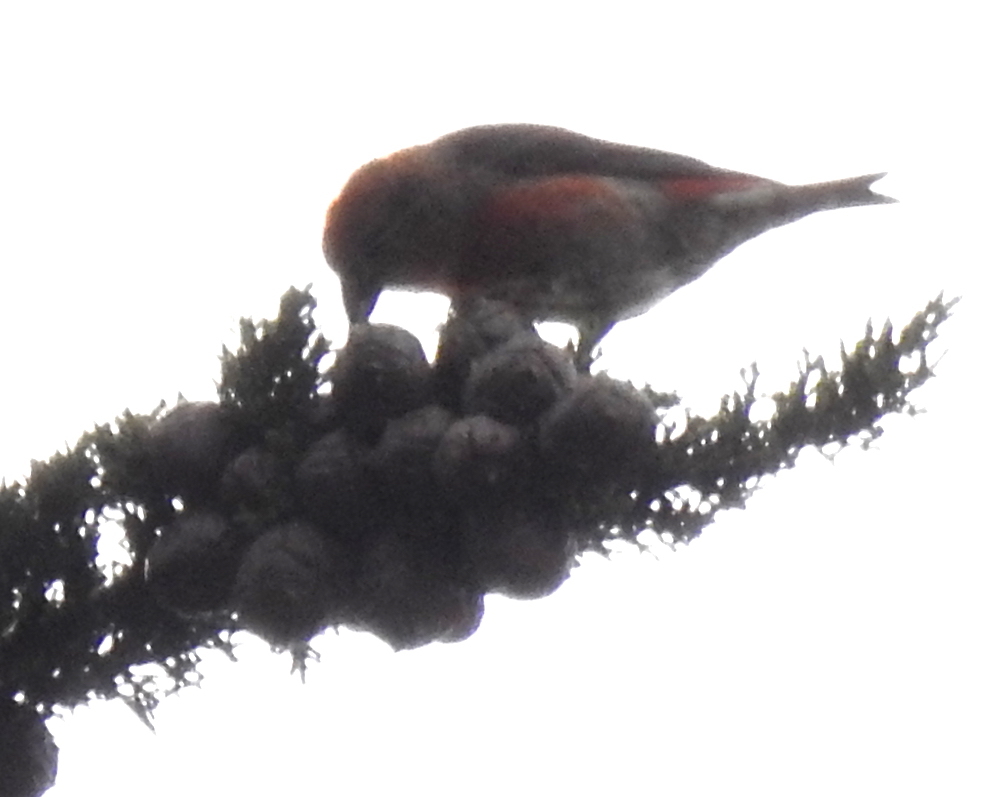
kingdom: Animalia
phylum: Chordata
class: Aves
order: Passeriformes
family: Fringillidae
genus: Loxia
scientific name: Loxia curvirostra
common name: Red crossbill
